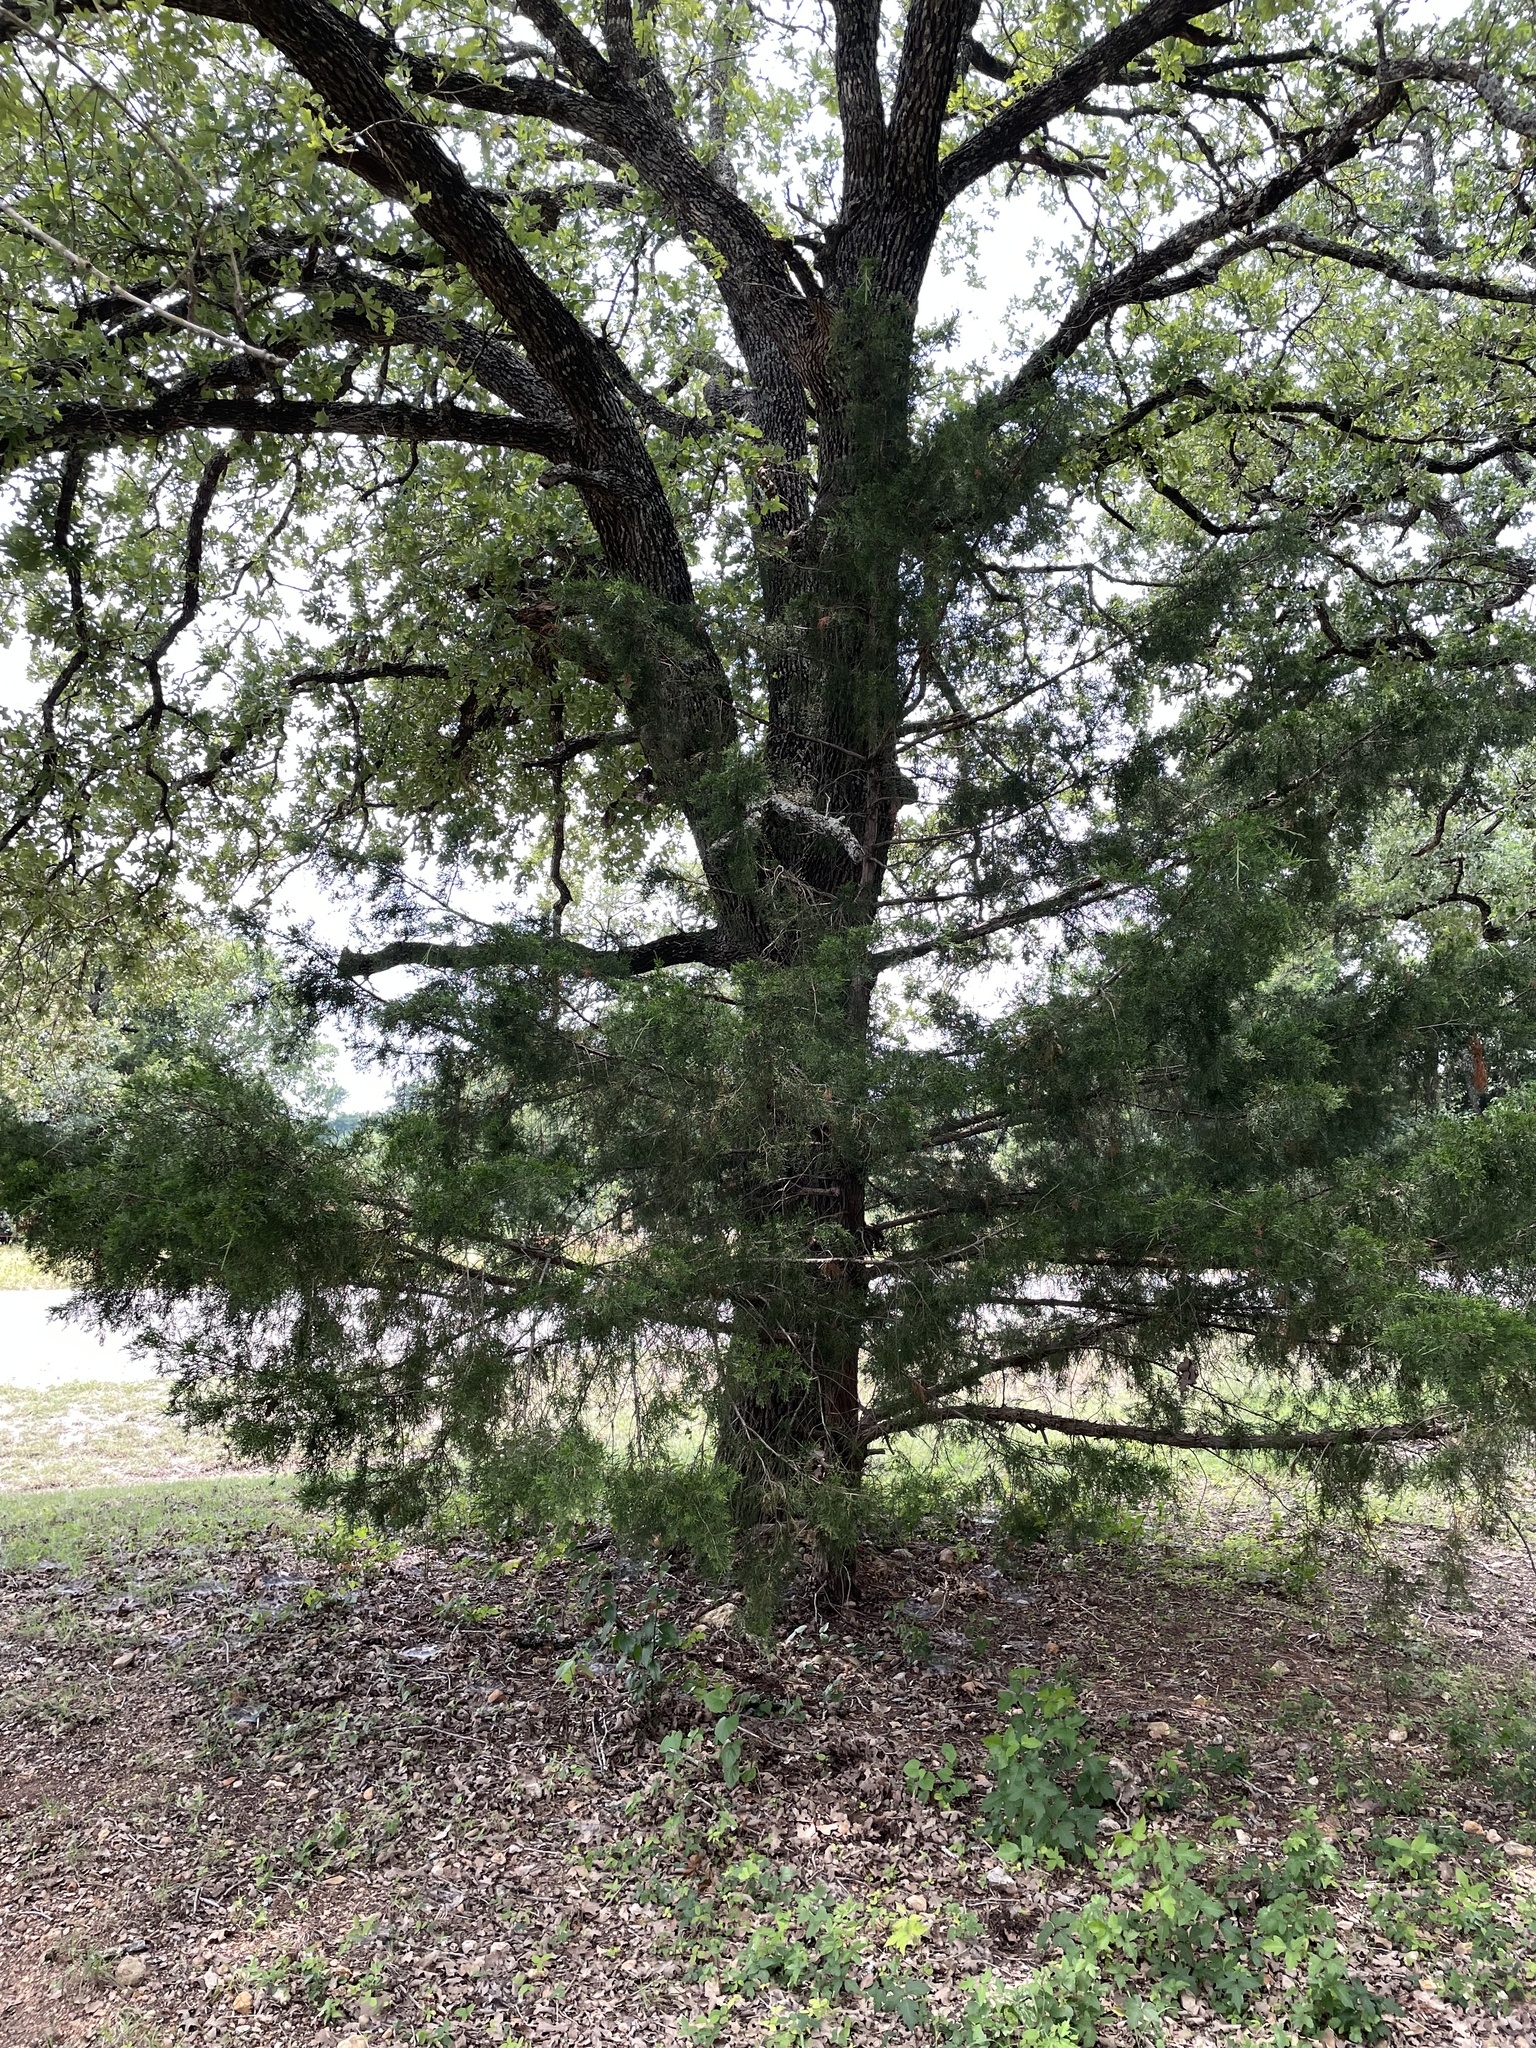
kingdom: Plantae
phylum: Tracheophyta
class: Pinopsida
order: Pinales
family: Cupressaceae
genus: Juniperus
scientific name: Juniperus virginiana
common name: Red juniper
